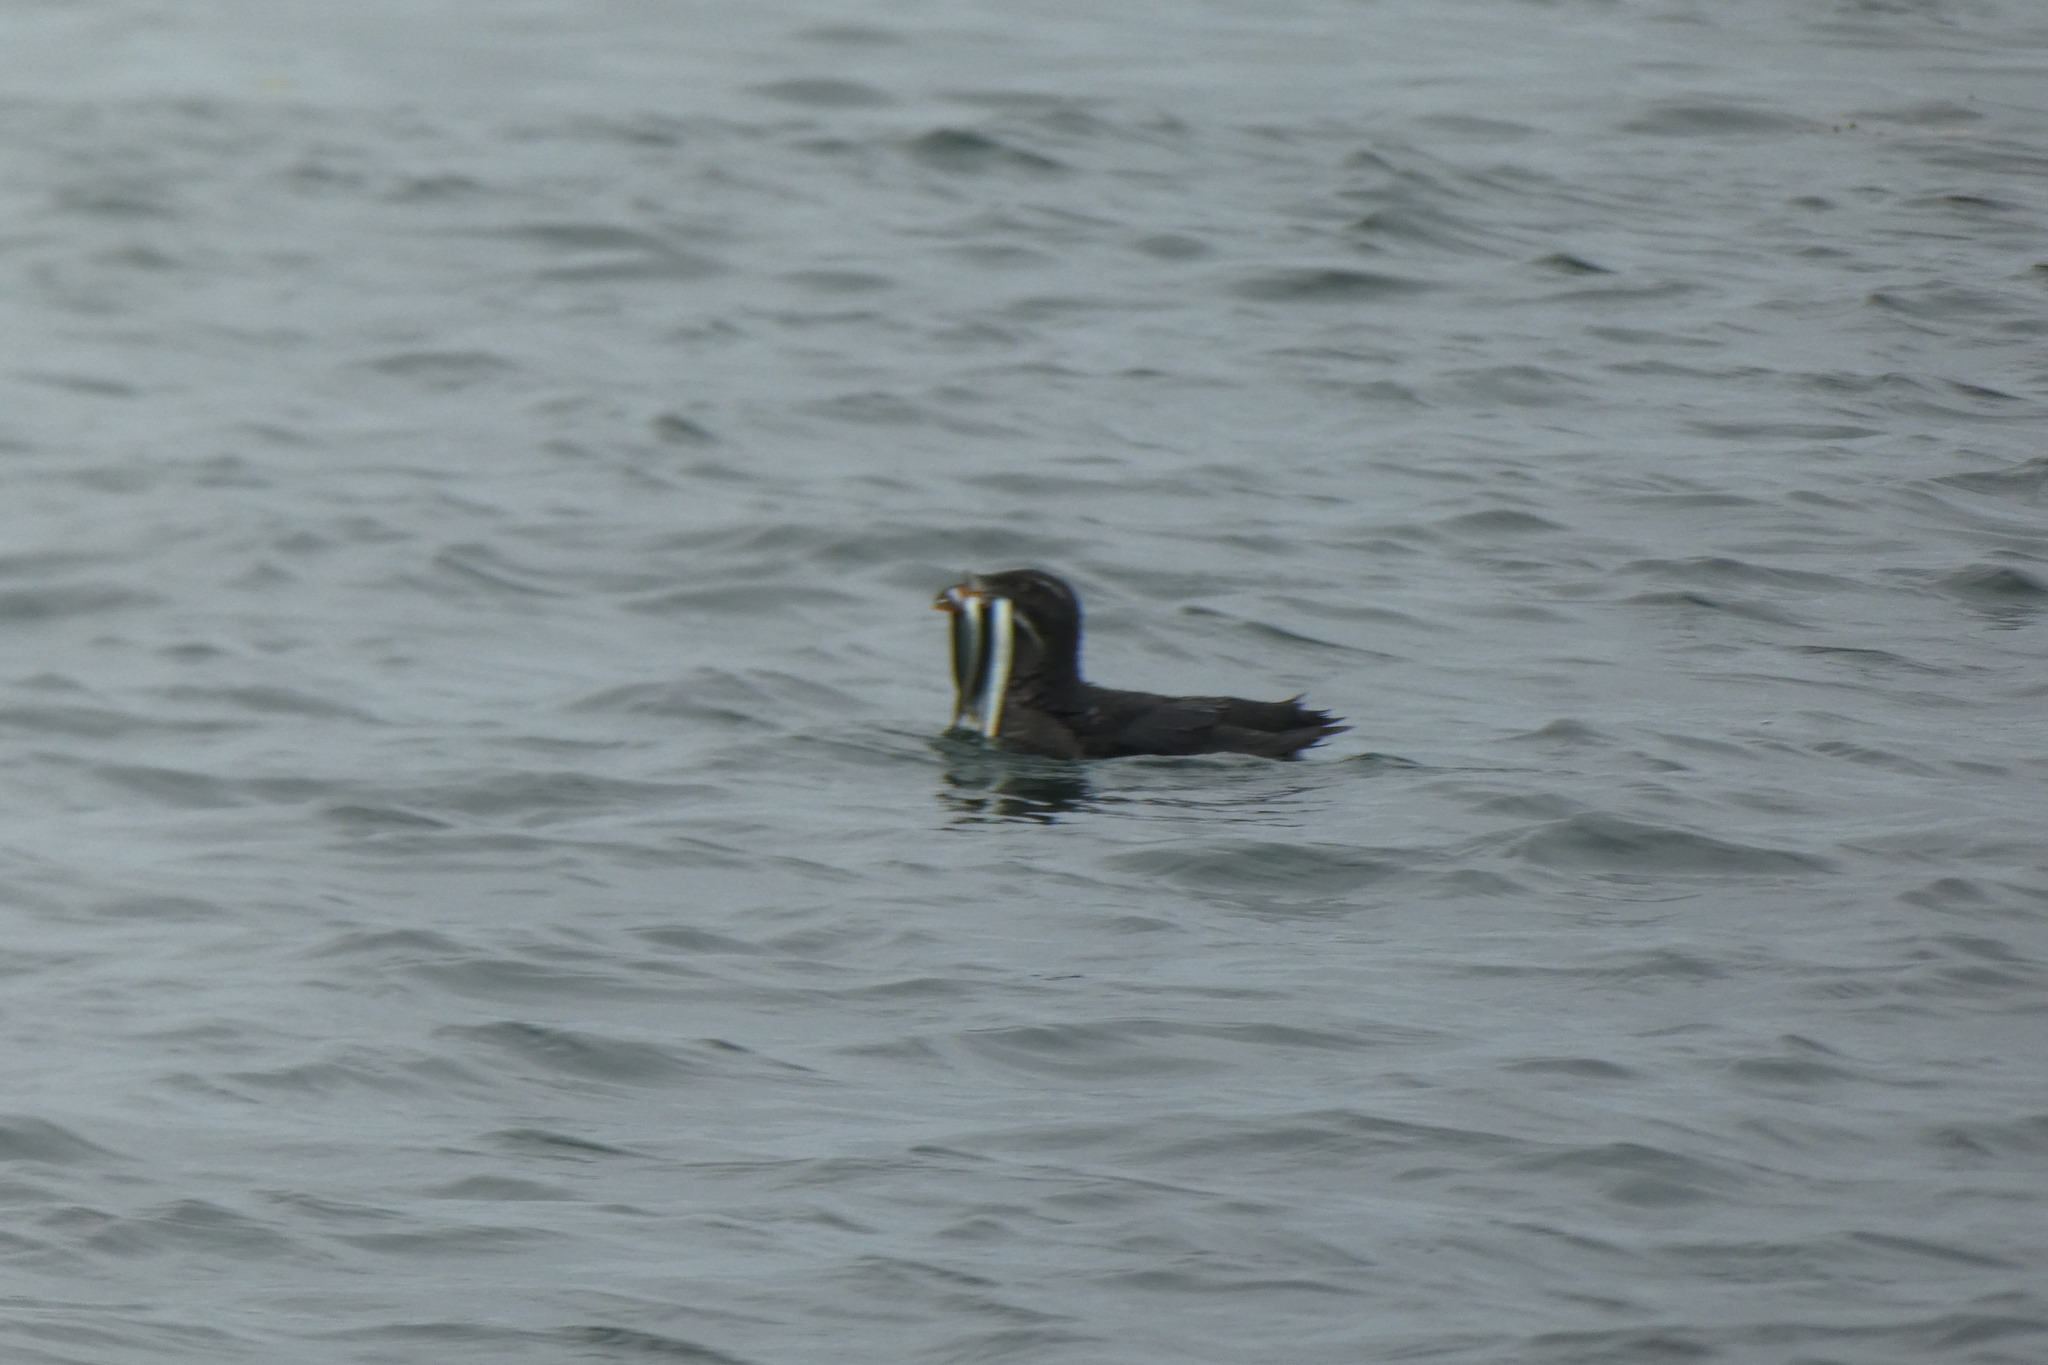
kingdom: Animalia
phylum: Chordata
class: Aves
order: Charadriiformes
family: Alcidae
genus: Cerorhinca
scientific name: Cerorhinca monocerata
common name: Rhinoceros auklet
